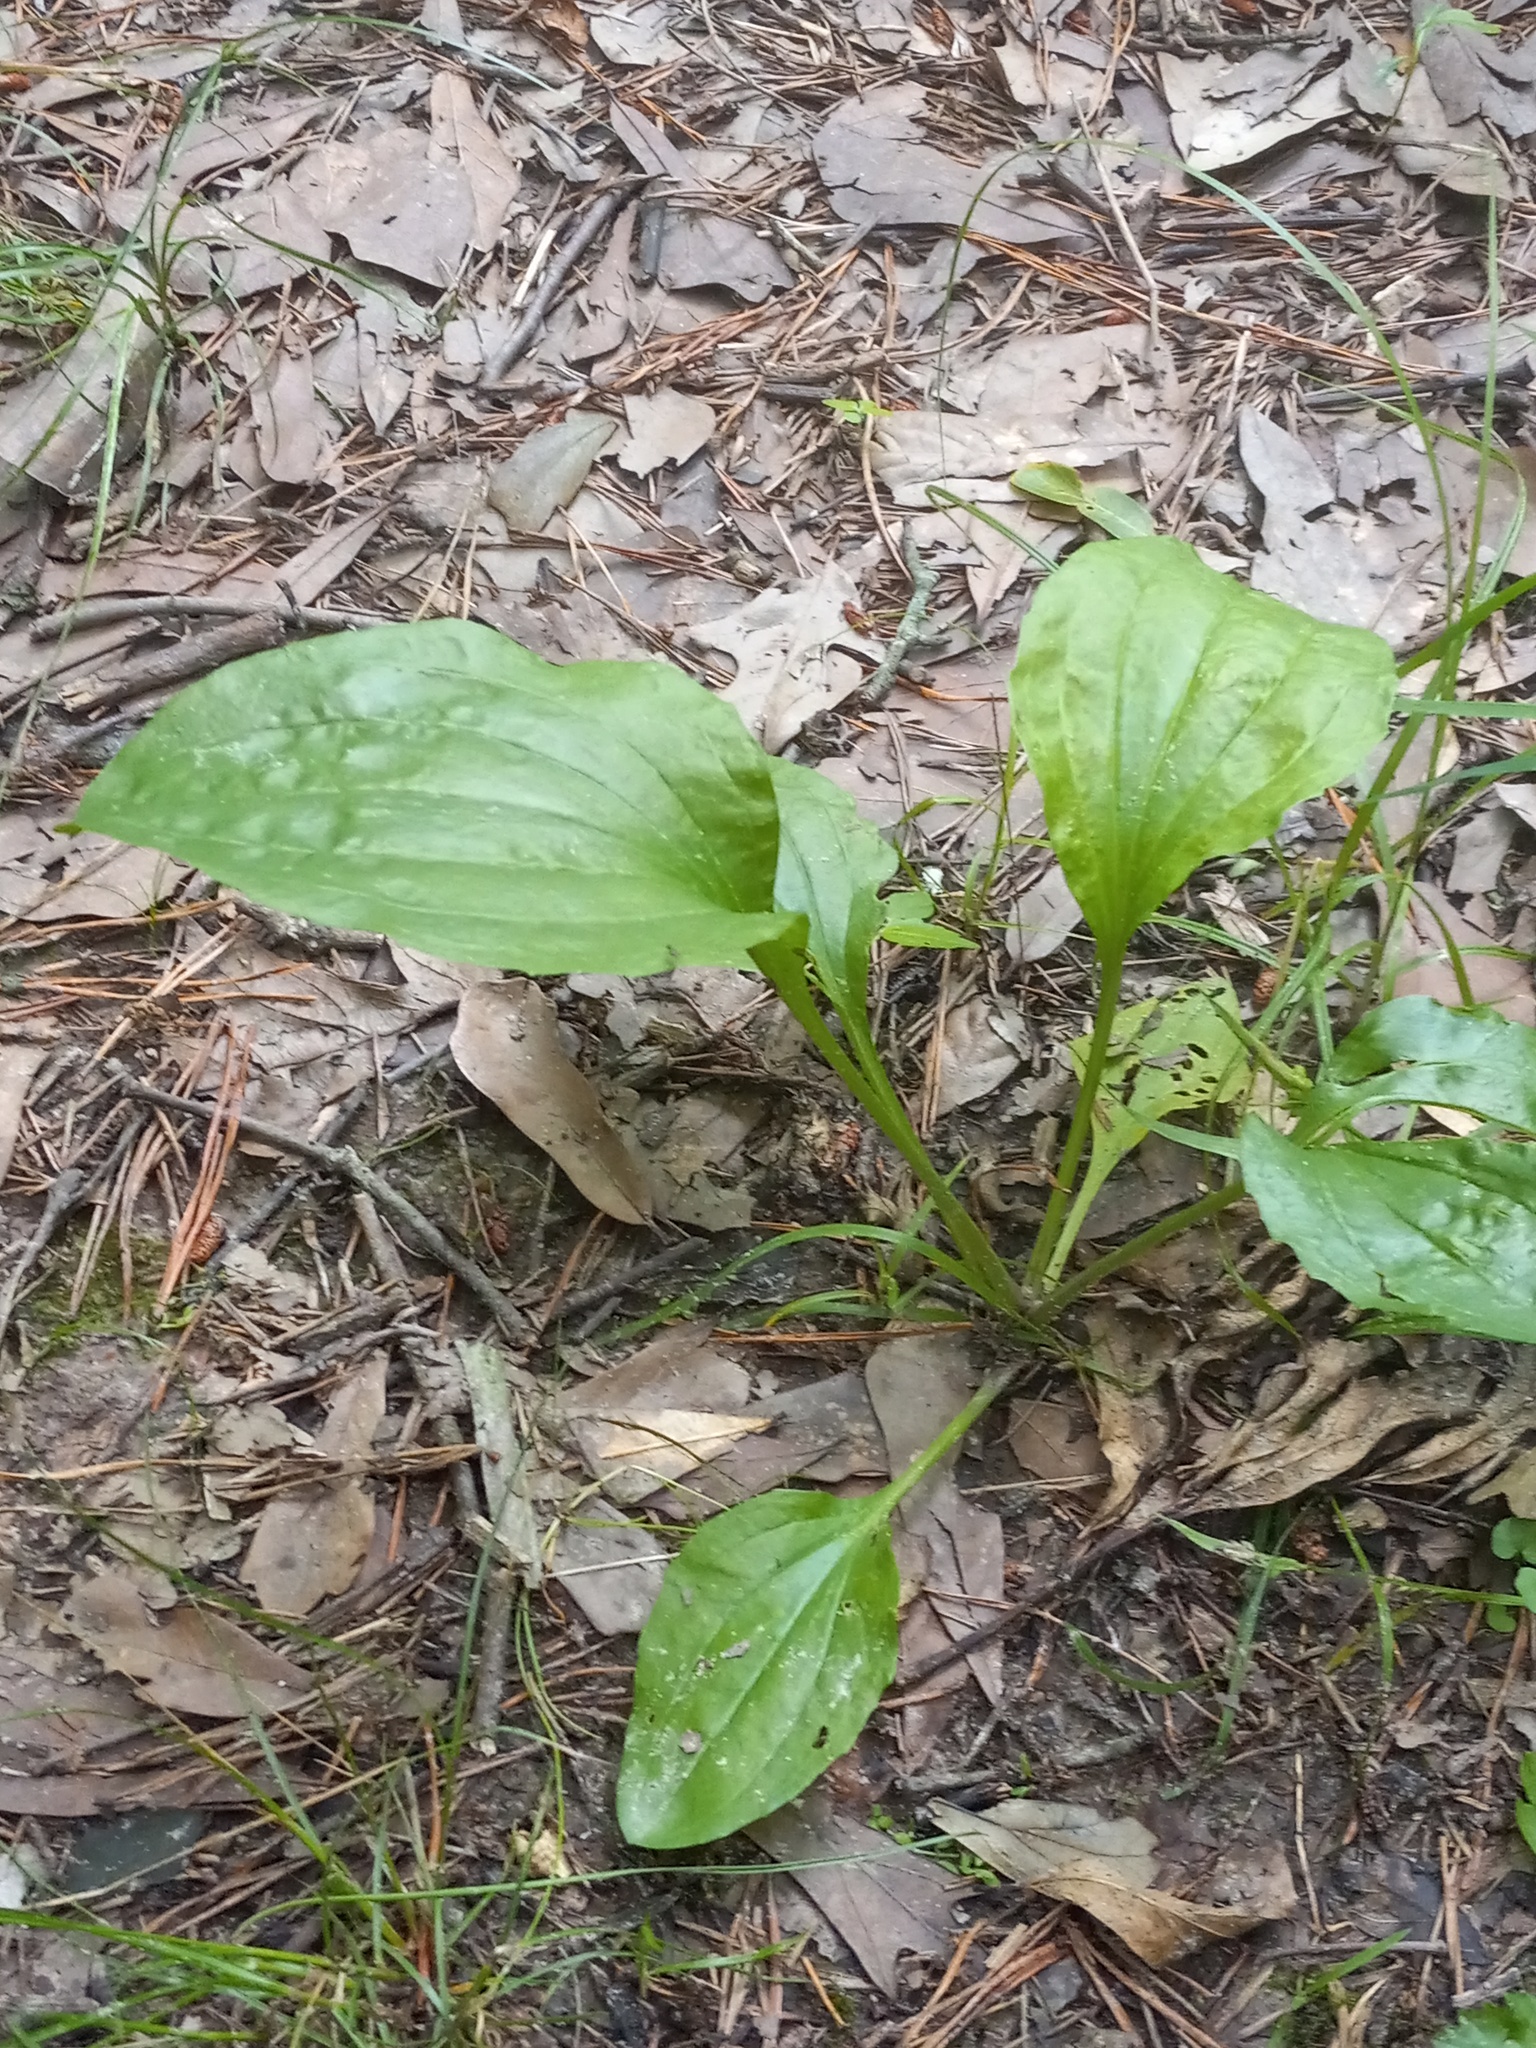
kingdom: Plantae
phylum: Tracheophyta
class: Magnoliopsida
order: Lamiales
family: Plantaginaceae
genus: Plantago
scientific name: Plantago major
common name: Common plantain
